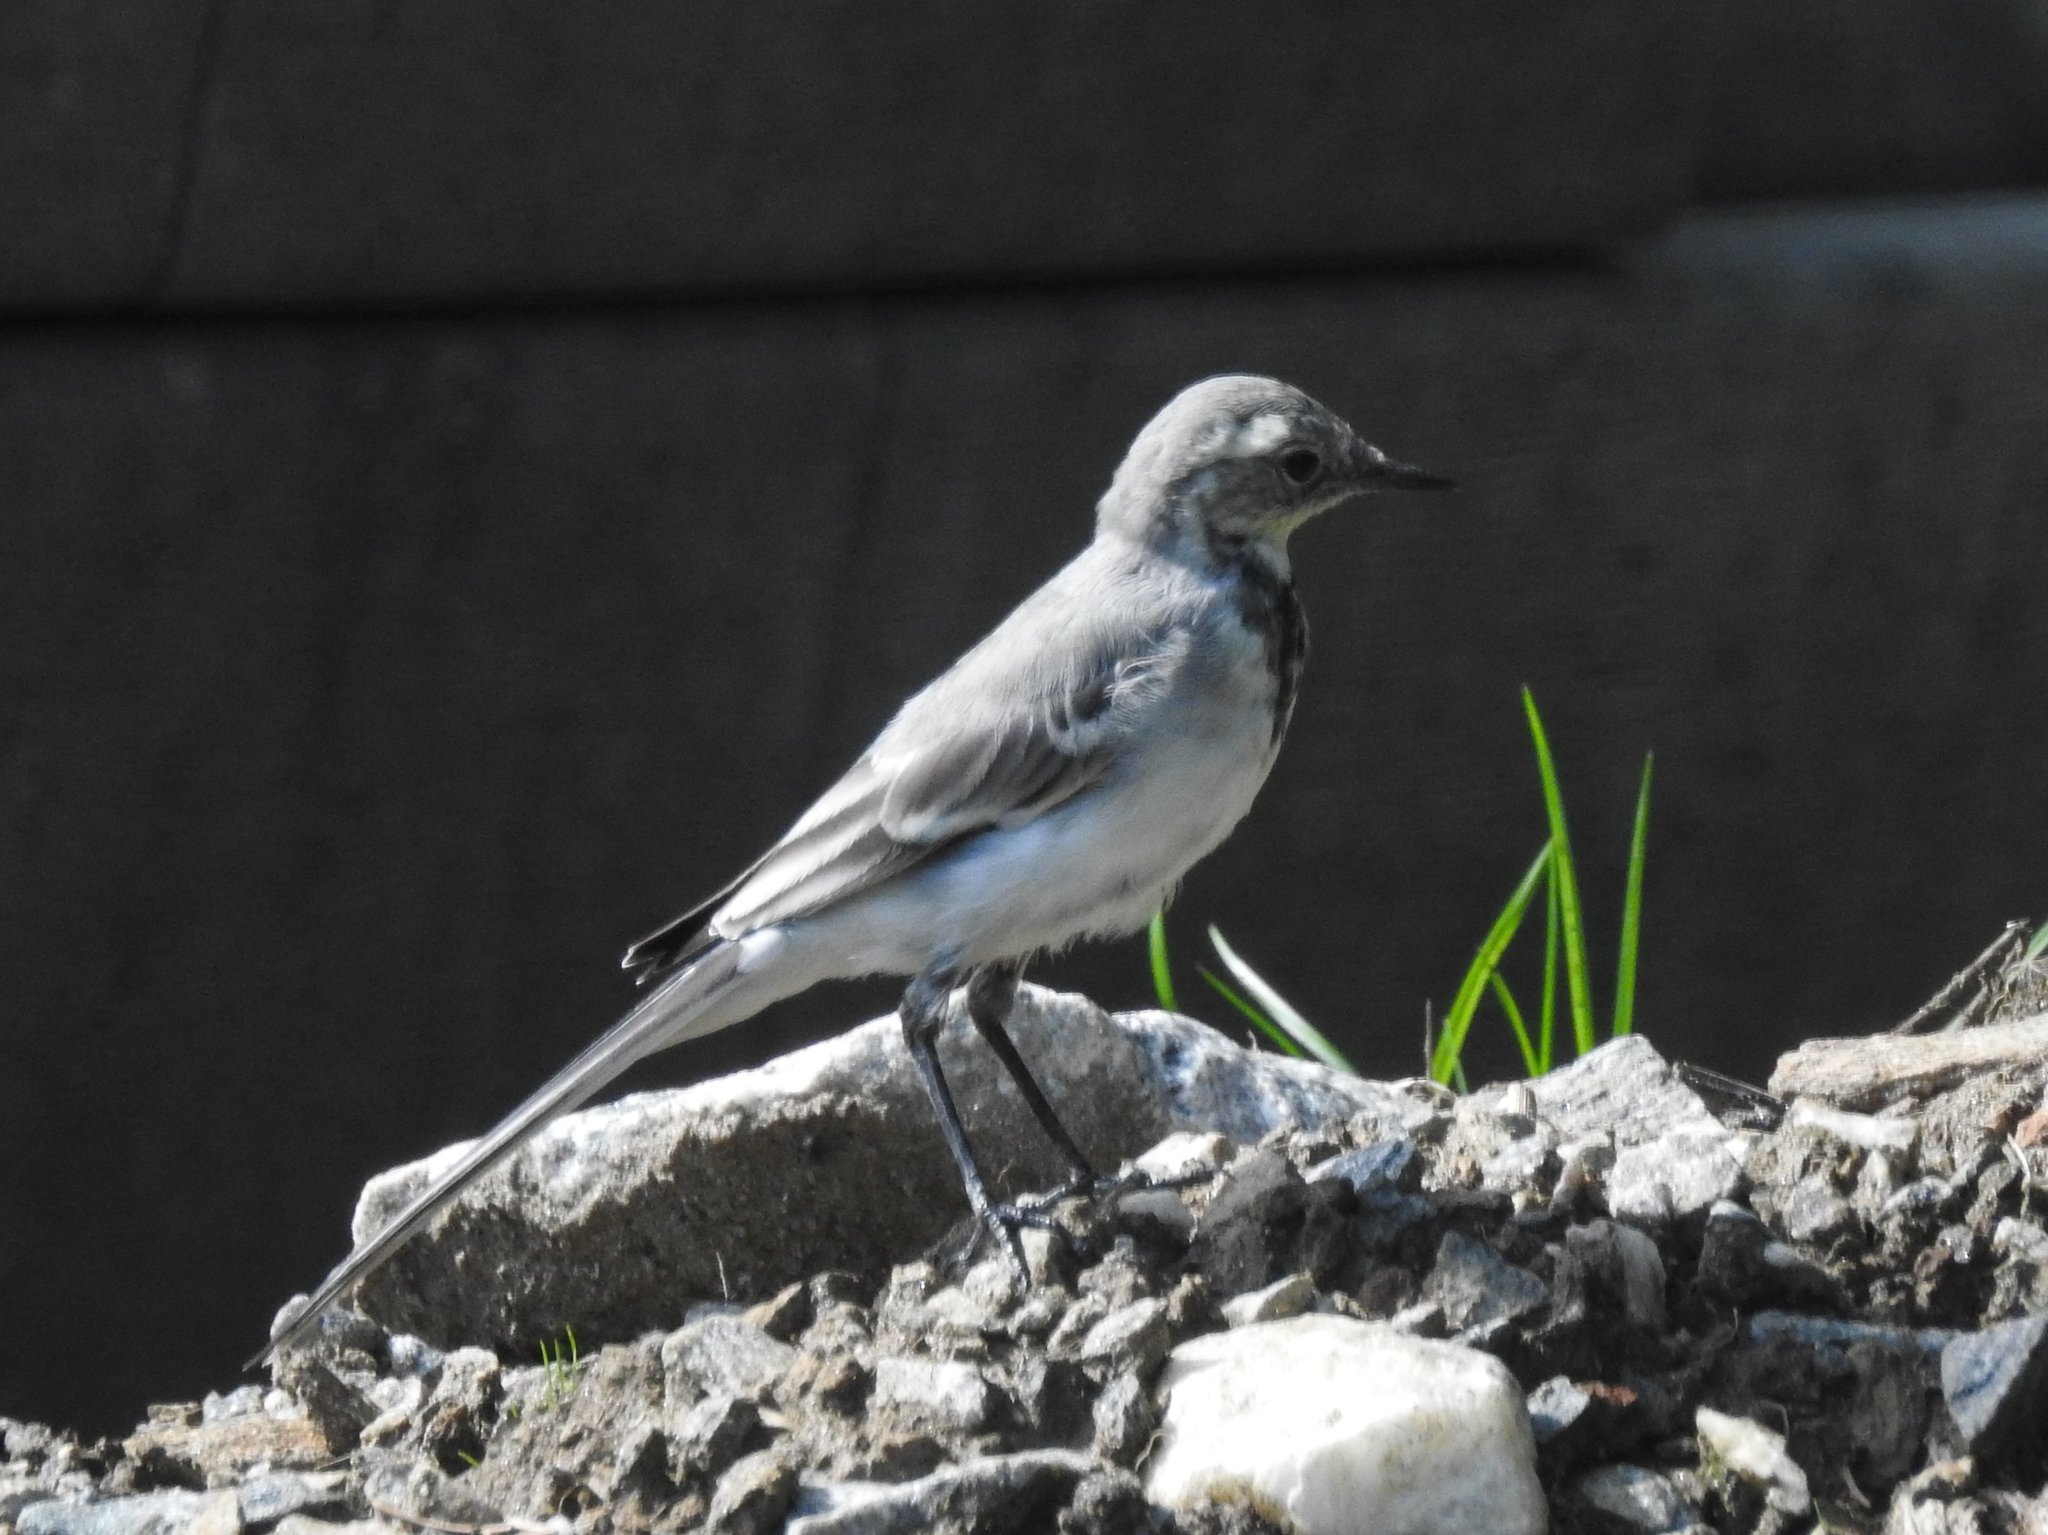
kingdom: Animalia
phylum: Chordata
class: Aves
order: Passeriformes
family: Motacillidae
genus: Motacilla
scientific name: Motacilla alba
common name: White wagtail
